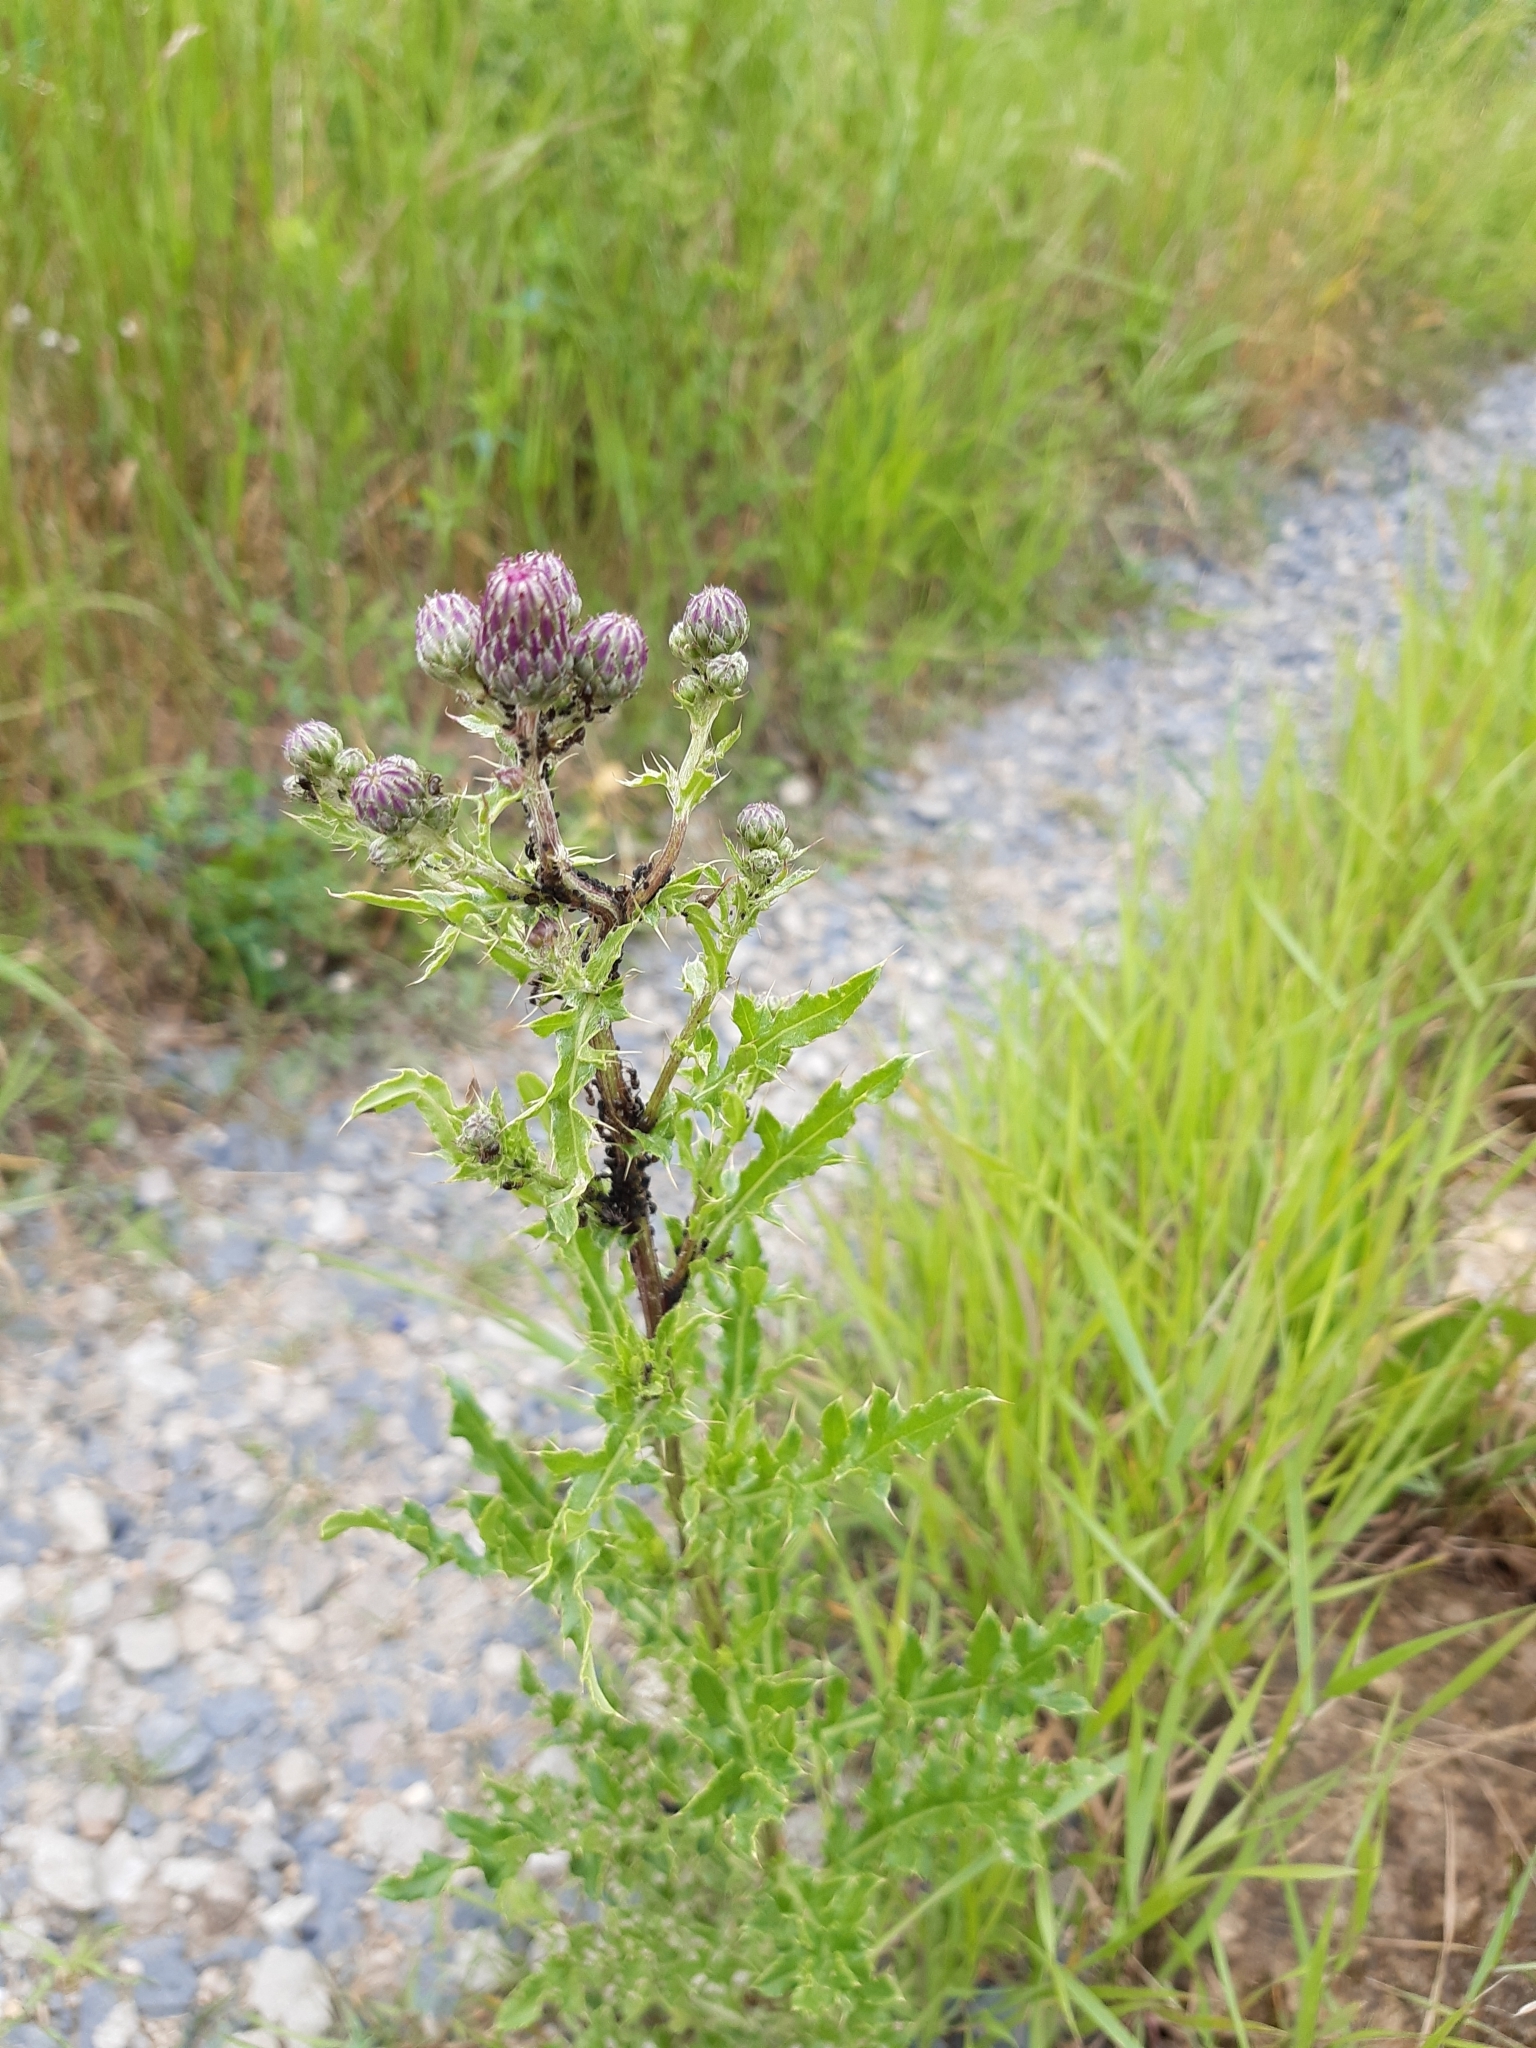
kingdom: Plantae
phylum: Tracheophyta
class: Magnoliopsida
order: Asterales
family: Asteraceae
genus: Cirsium
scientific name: Cirsium arvense
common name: Creeping thistle
